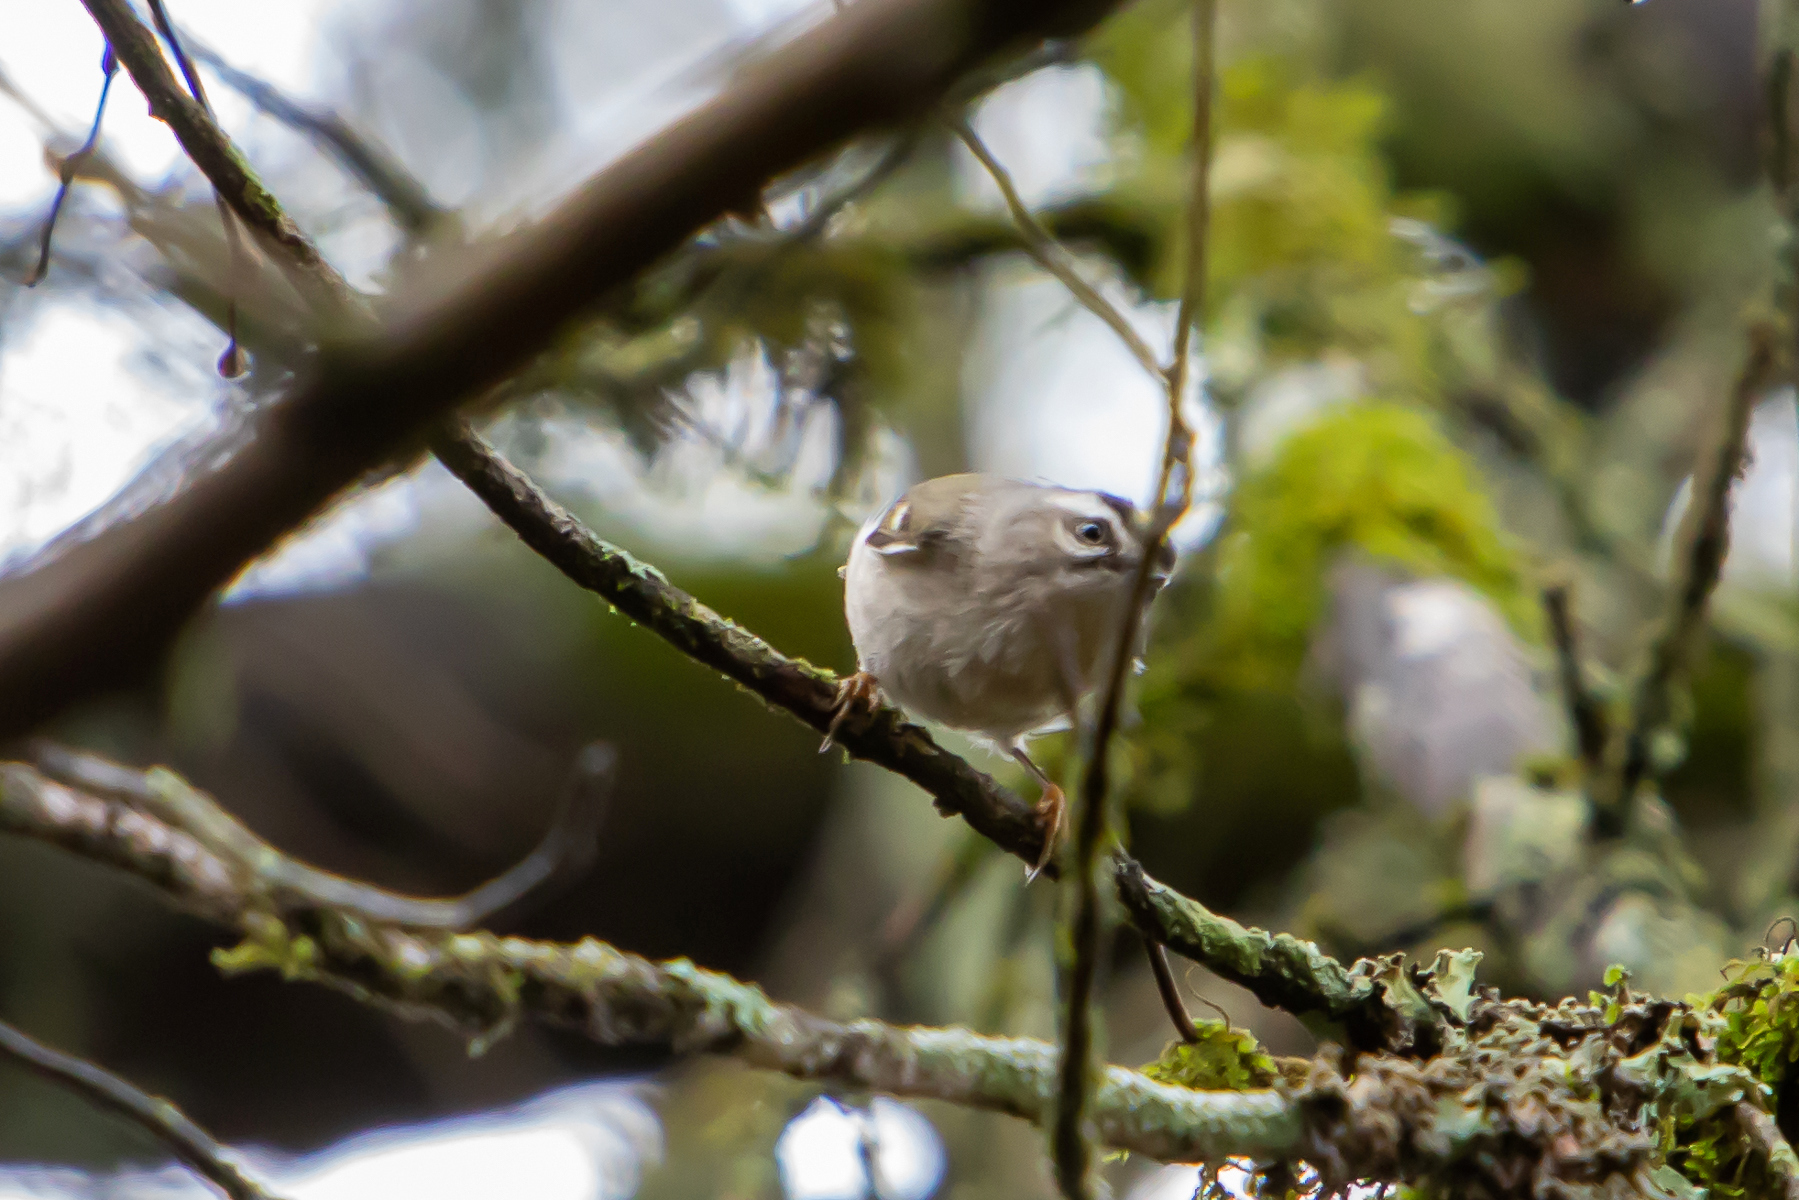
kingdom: Animalia
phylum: Chordata
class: Aves
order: Passeriformes
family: Regulidae
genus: Regulus
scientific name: Regulus satrapa
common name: Golden-crowned kinglet
